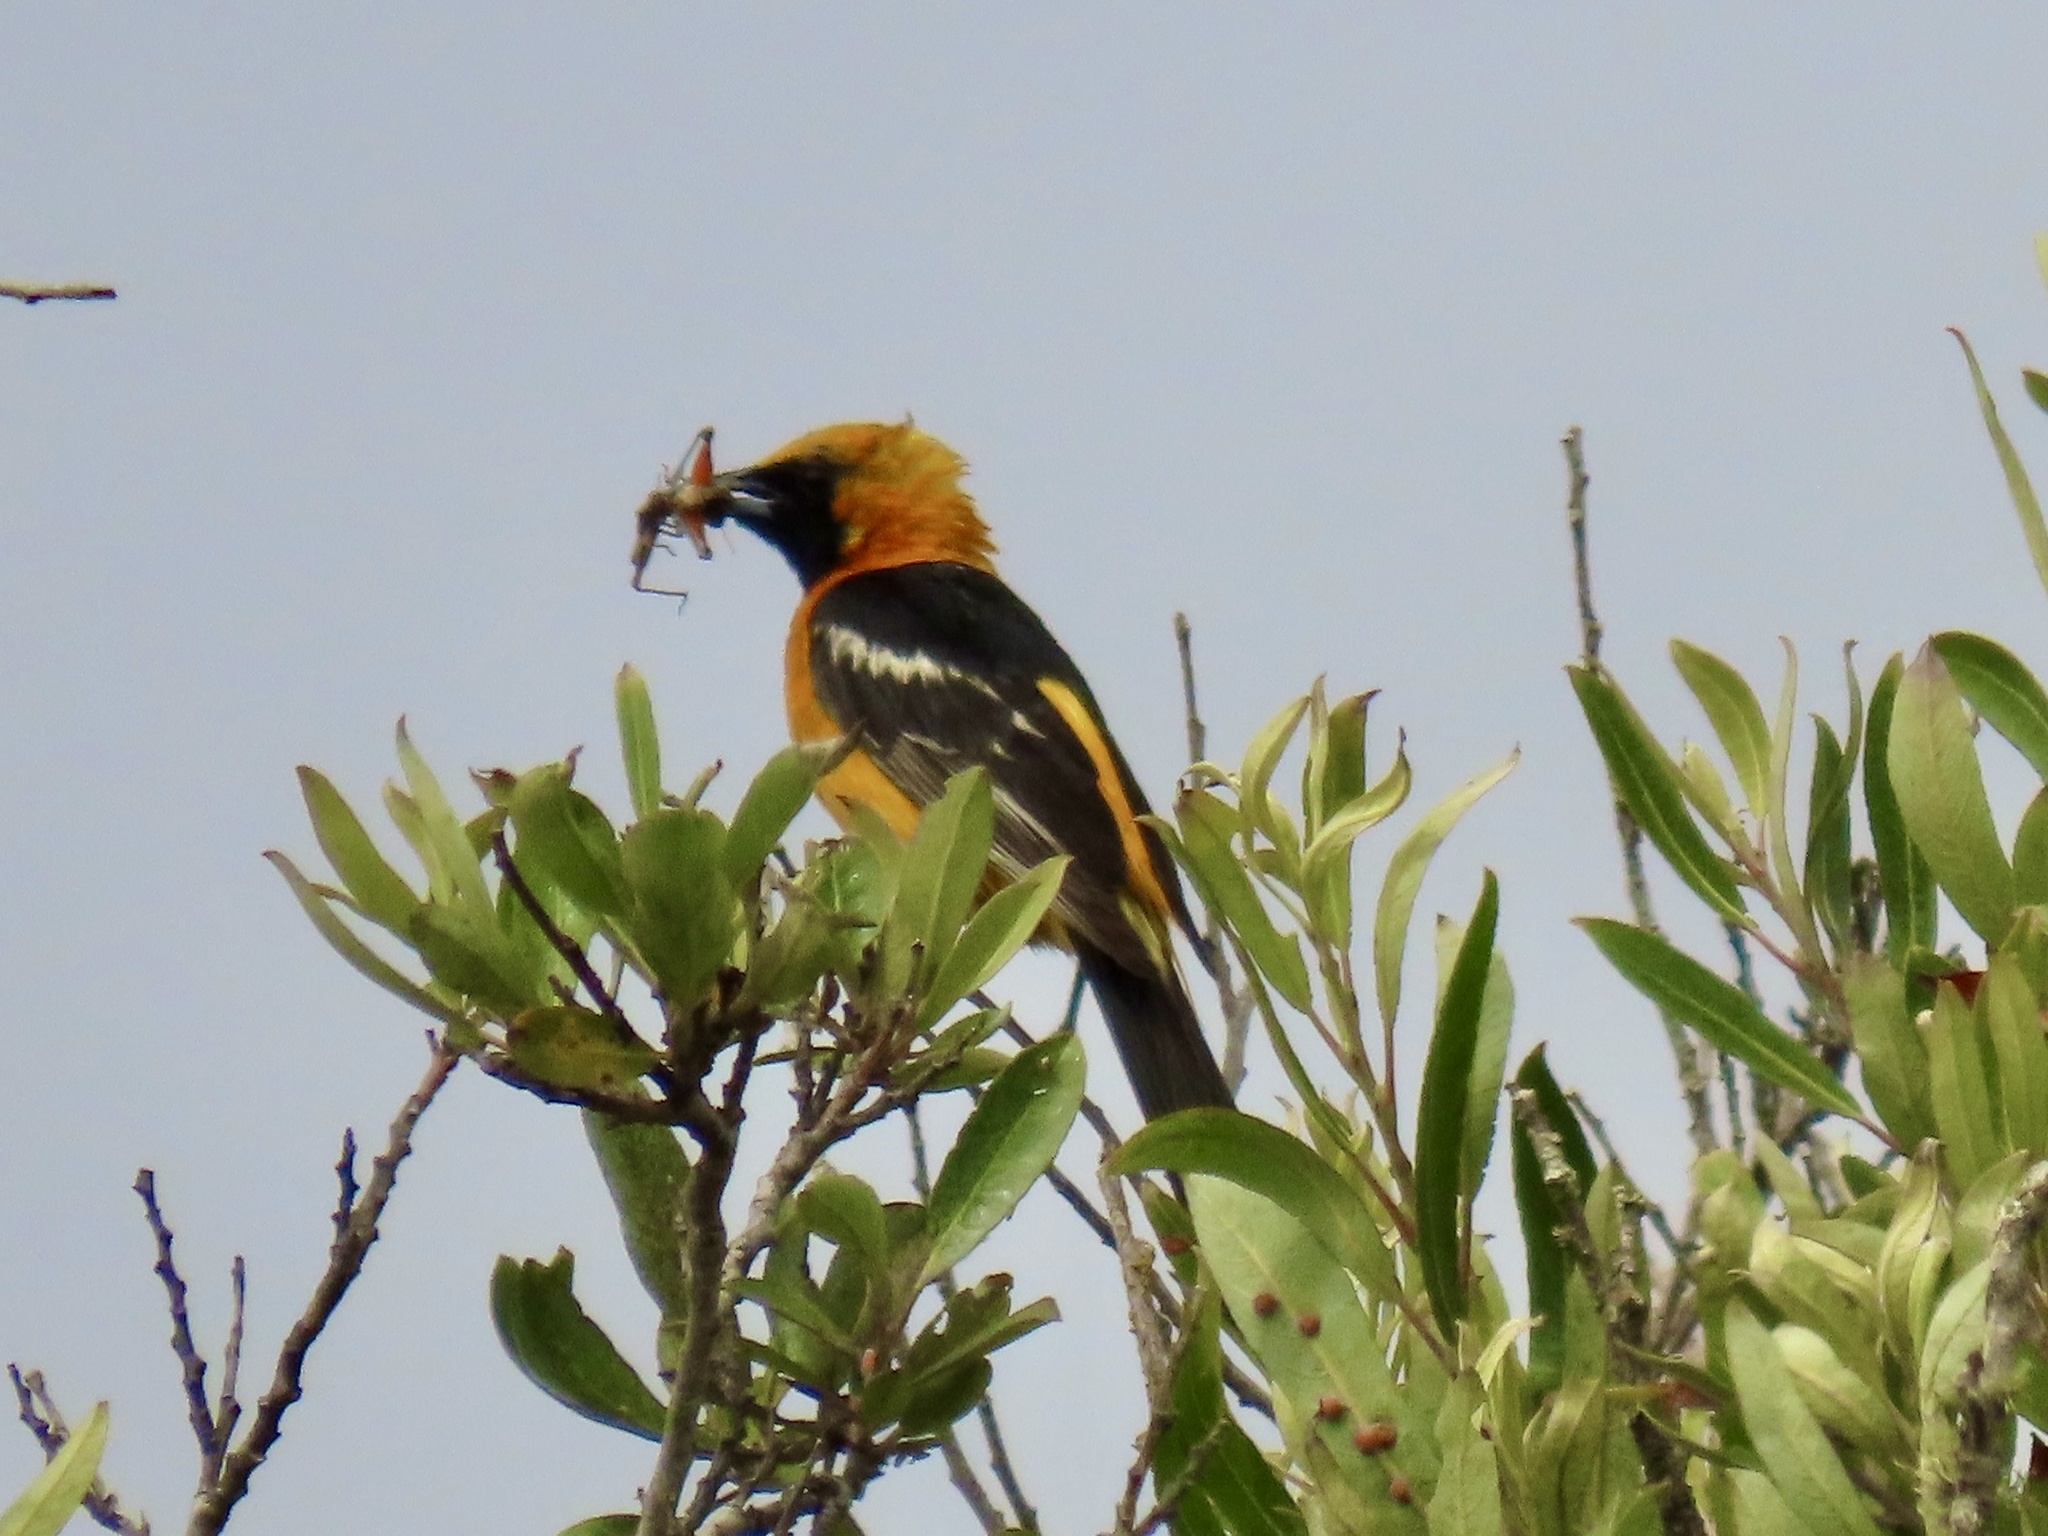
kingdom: Animalia
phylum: Chordata
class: Aves
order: Passeriformes
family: Icteridae
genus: Icterus
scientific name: Icterus cucullatus
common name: Hooded oriole
